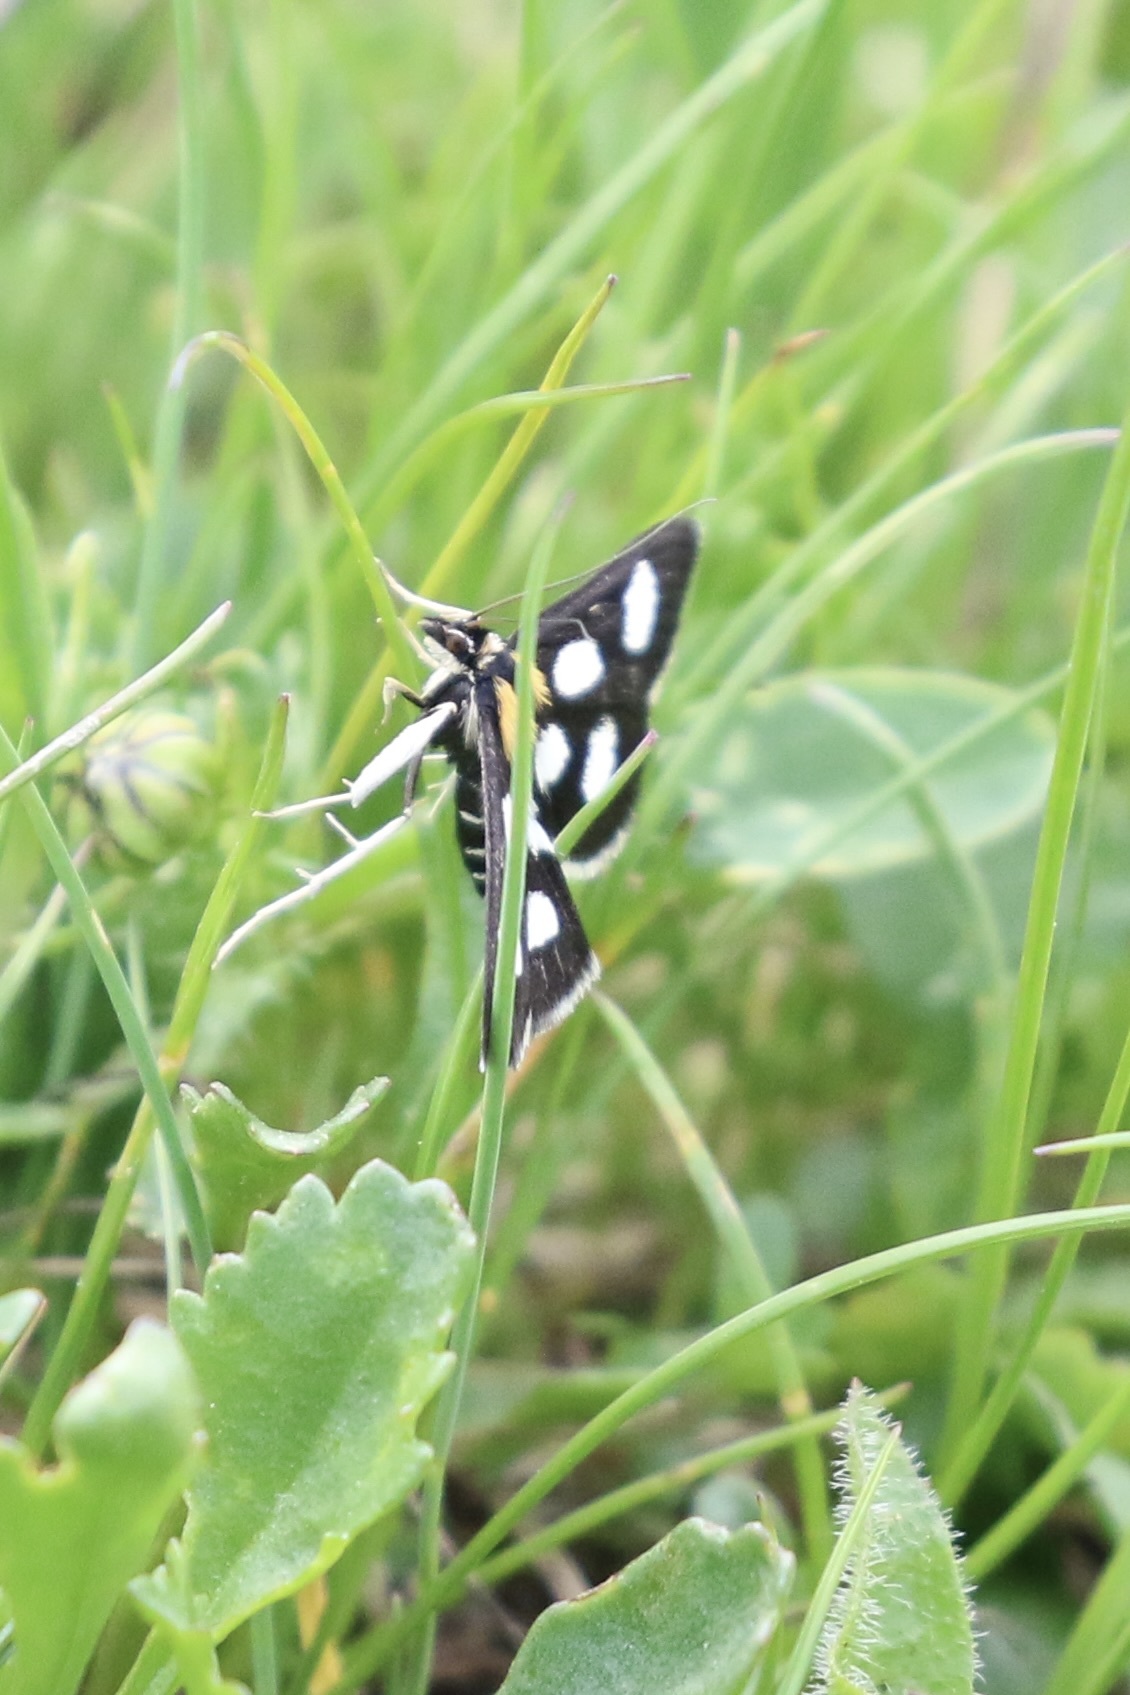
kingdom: Animalia
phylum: Arthropoda
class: Insecta
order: Lepidoptera
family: Crambidae
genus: Anania
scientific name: Anania funebris
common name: White-spotted sable moth
